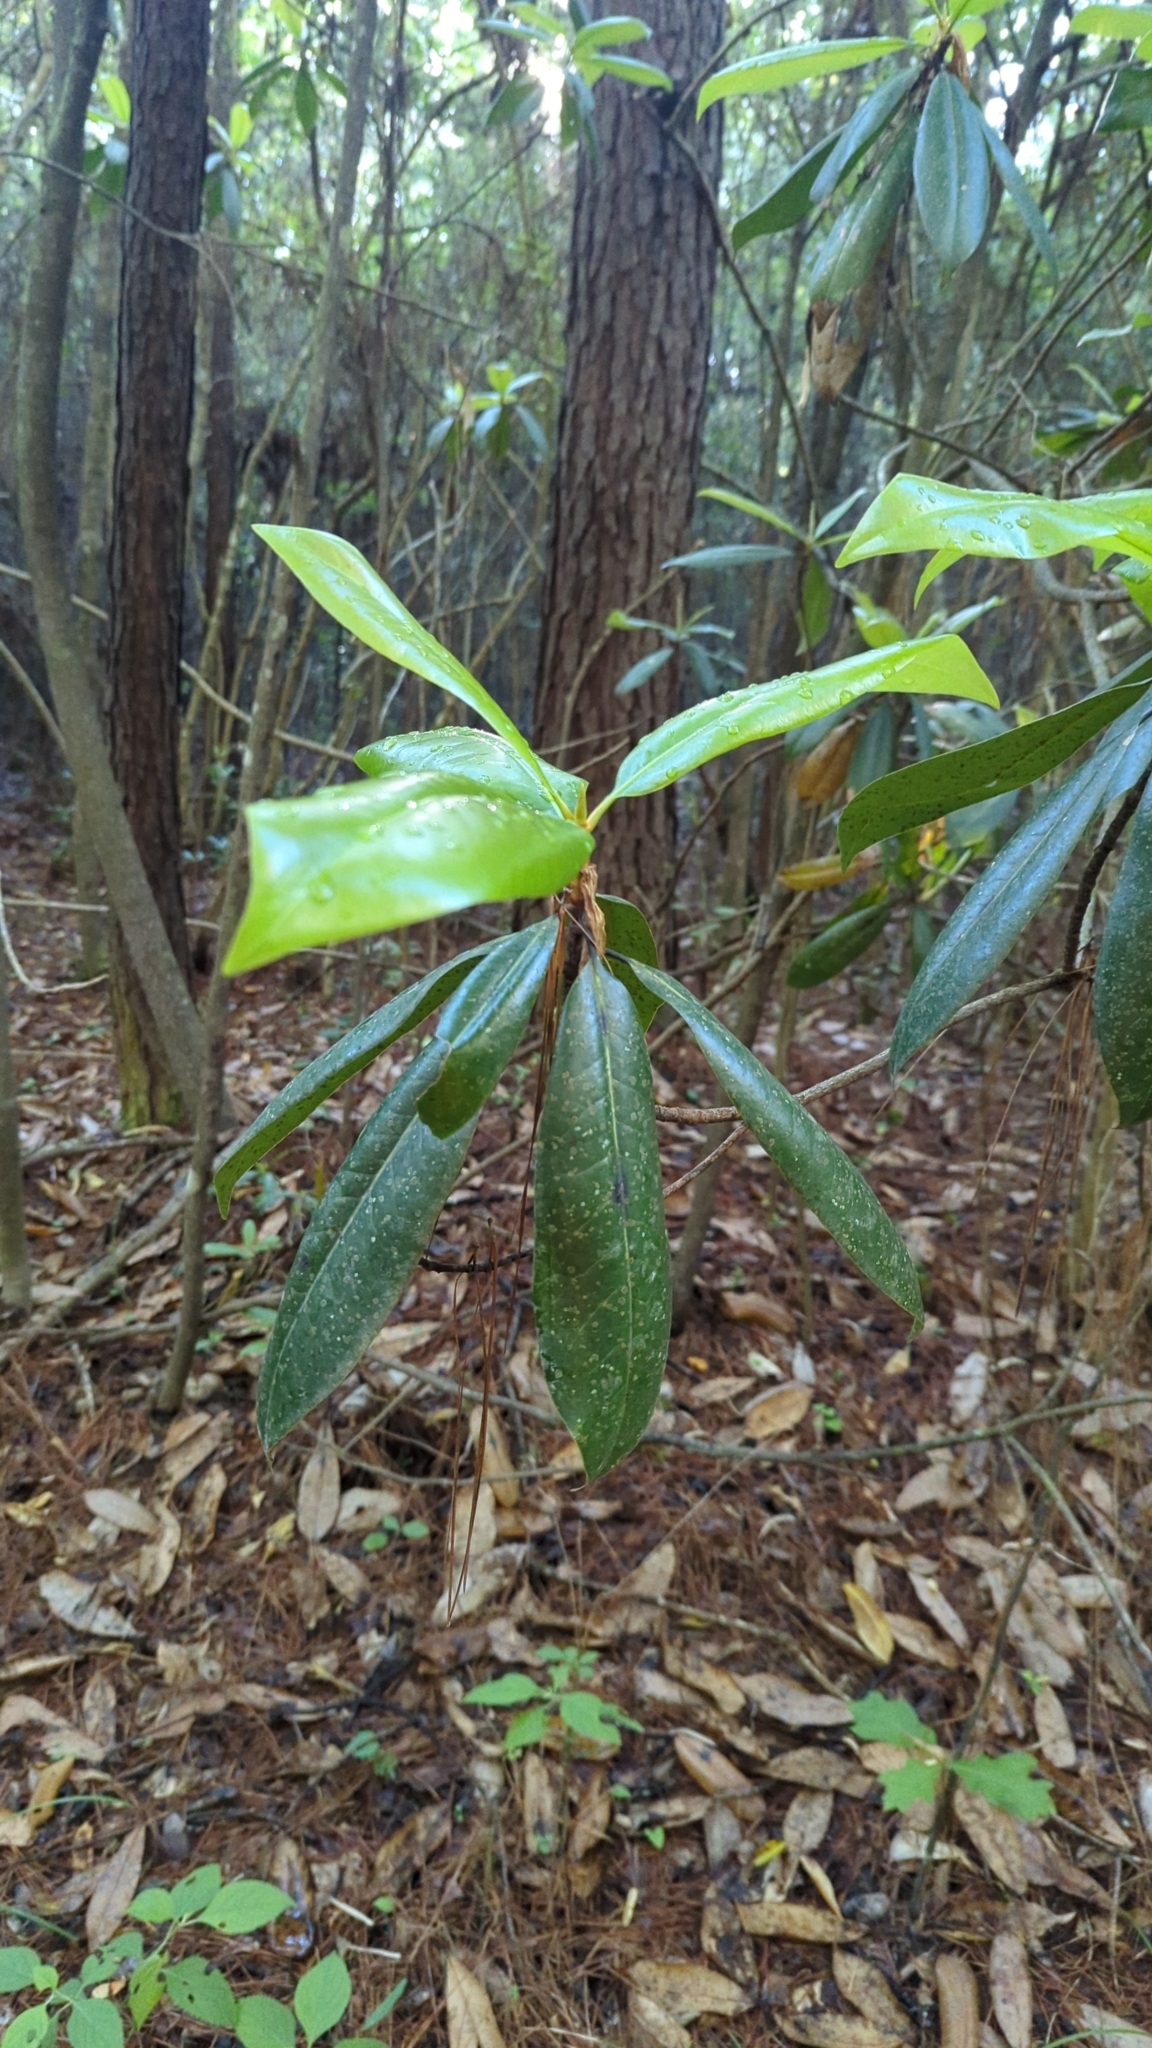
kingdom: Plantae
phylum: Tracheophyta
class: Magnoliopsida
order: Magnoliales
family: Magnoliaceae
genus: Magnolia
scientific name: Magnolia grandiflora
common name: Southern magnolia
